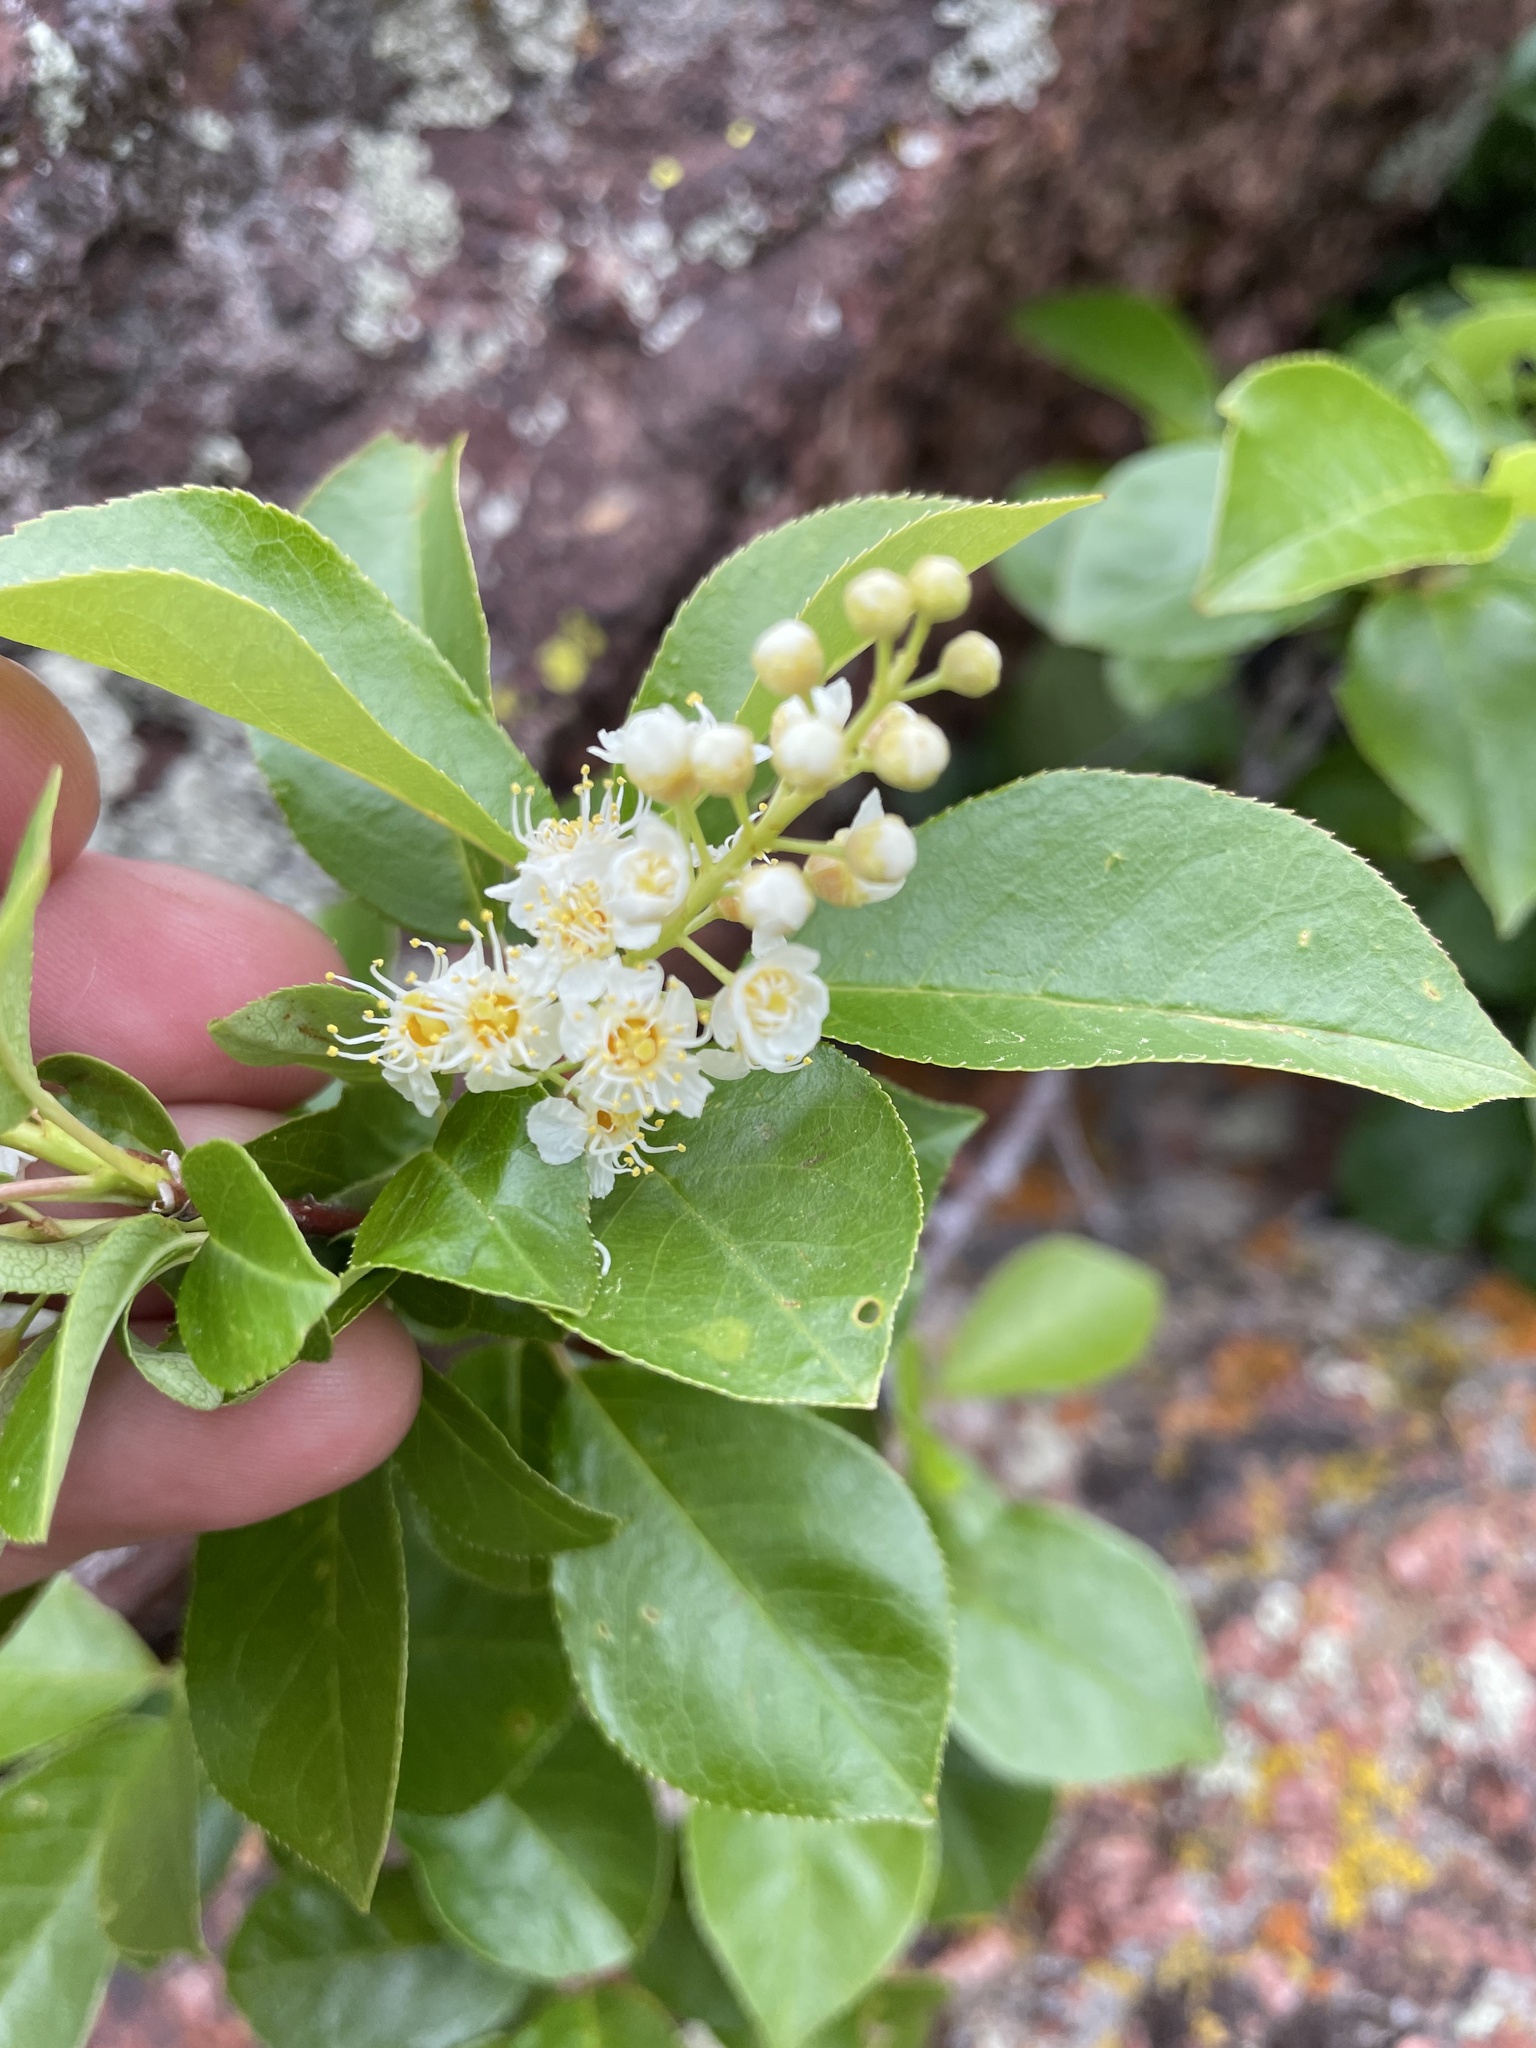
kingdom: Plantae
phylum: Tracheophyta
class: Magnoliopsida
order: Rosales
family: Rosaceae
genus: Prunus
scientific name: Prunus virginiana
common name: Chokecherry
